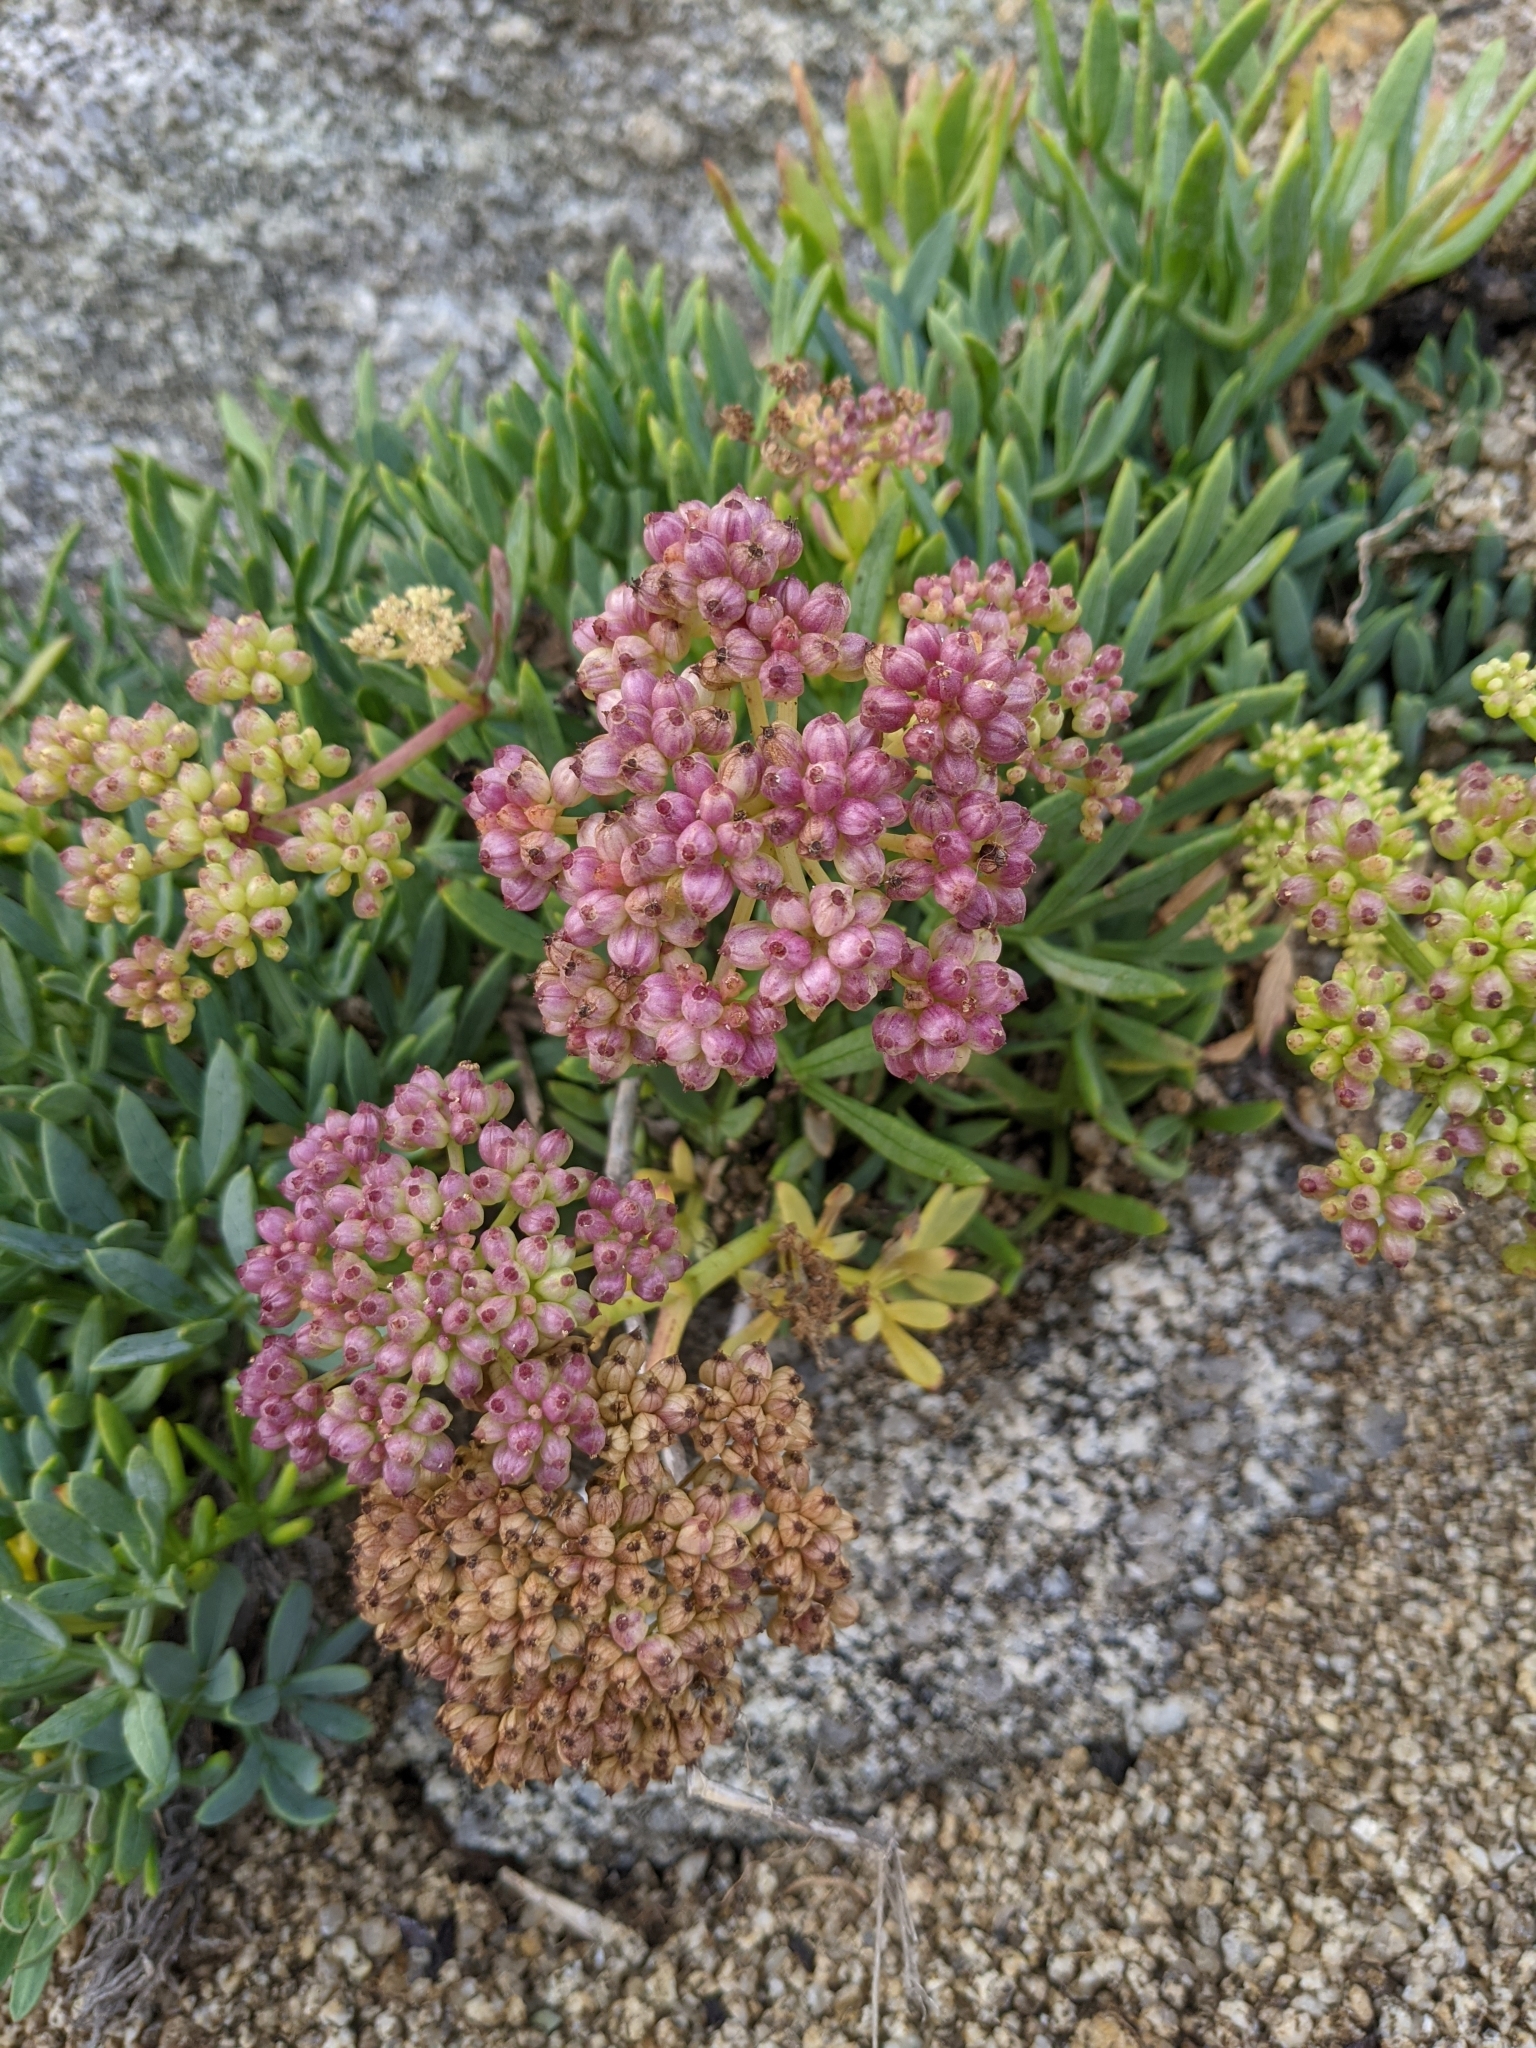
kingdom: Plantae
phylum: Tracheophyta
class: Magnoliopsida
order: Apiales
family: Apiaceae
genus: Crithmum
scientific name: Crithmum maritimum
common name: Rock samphire
